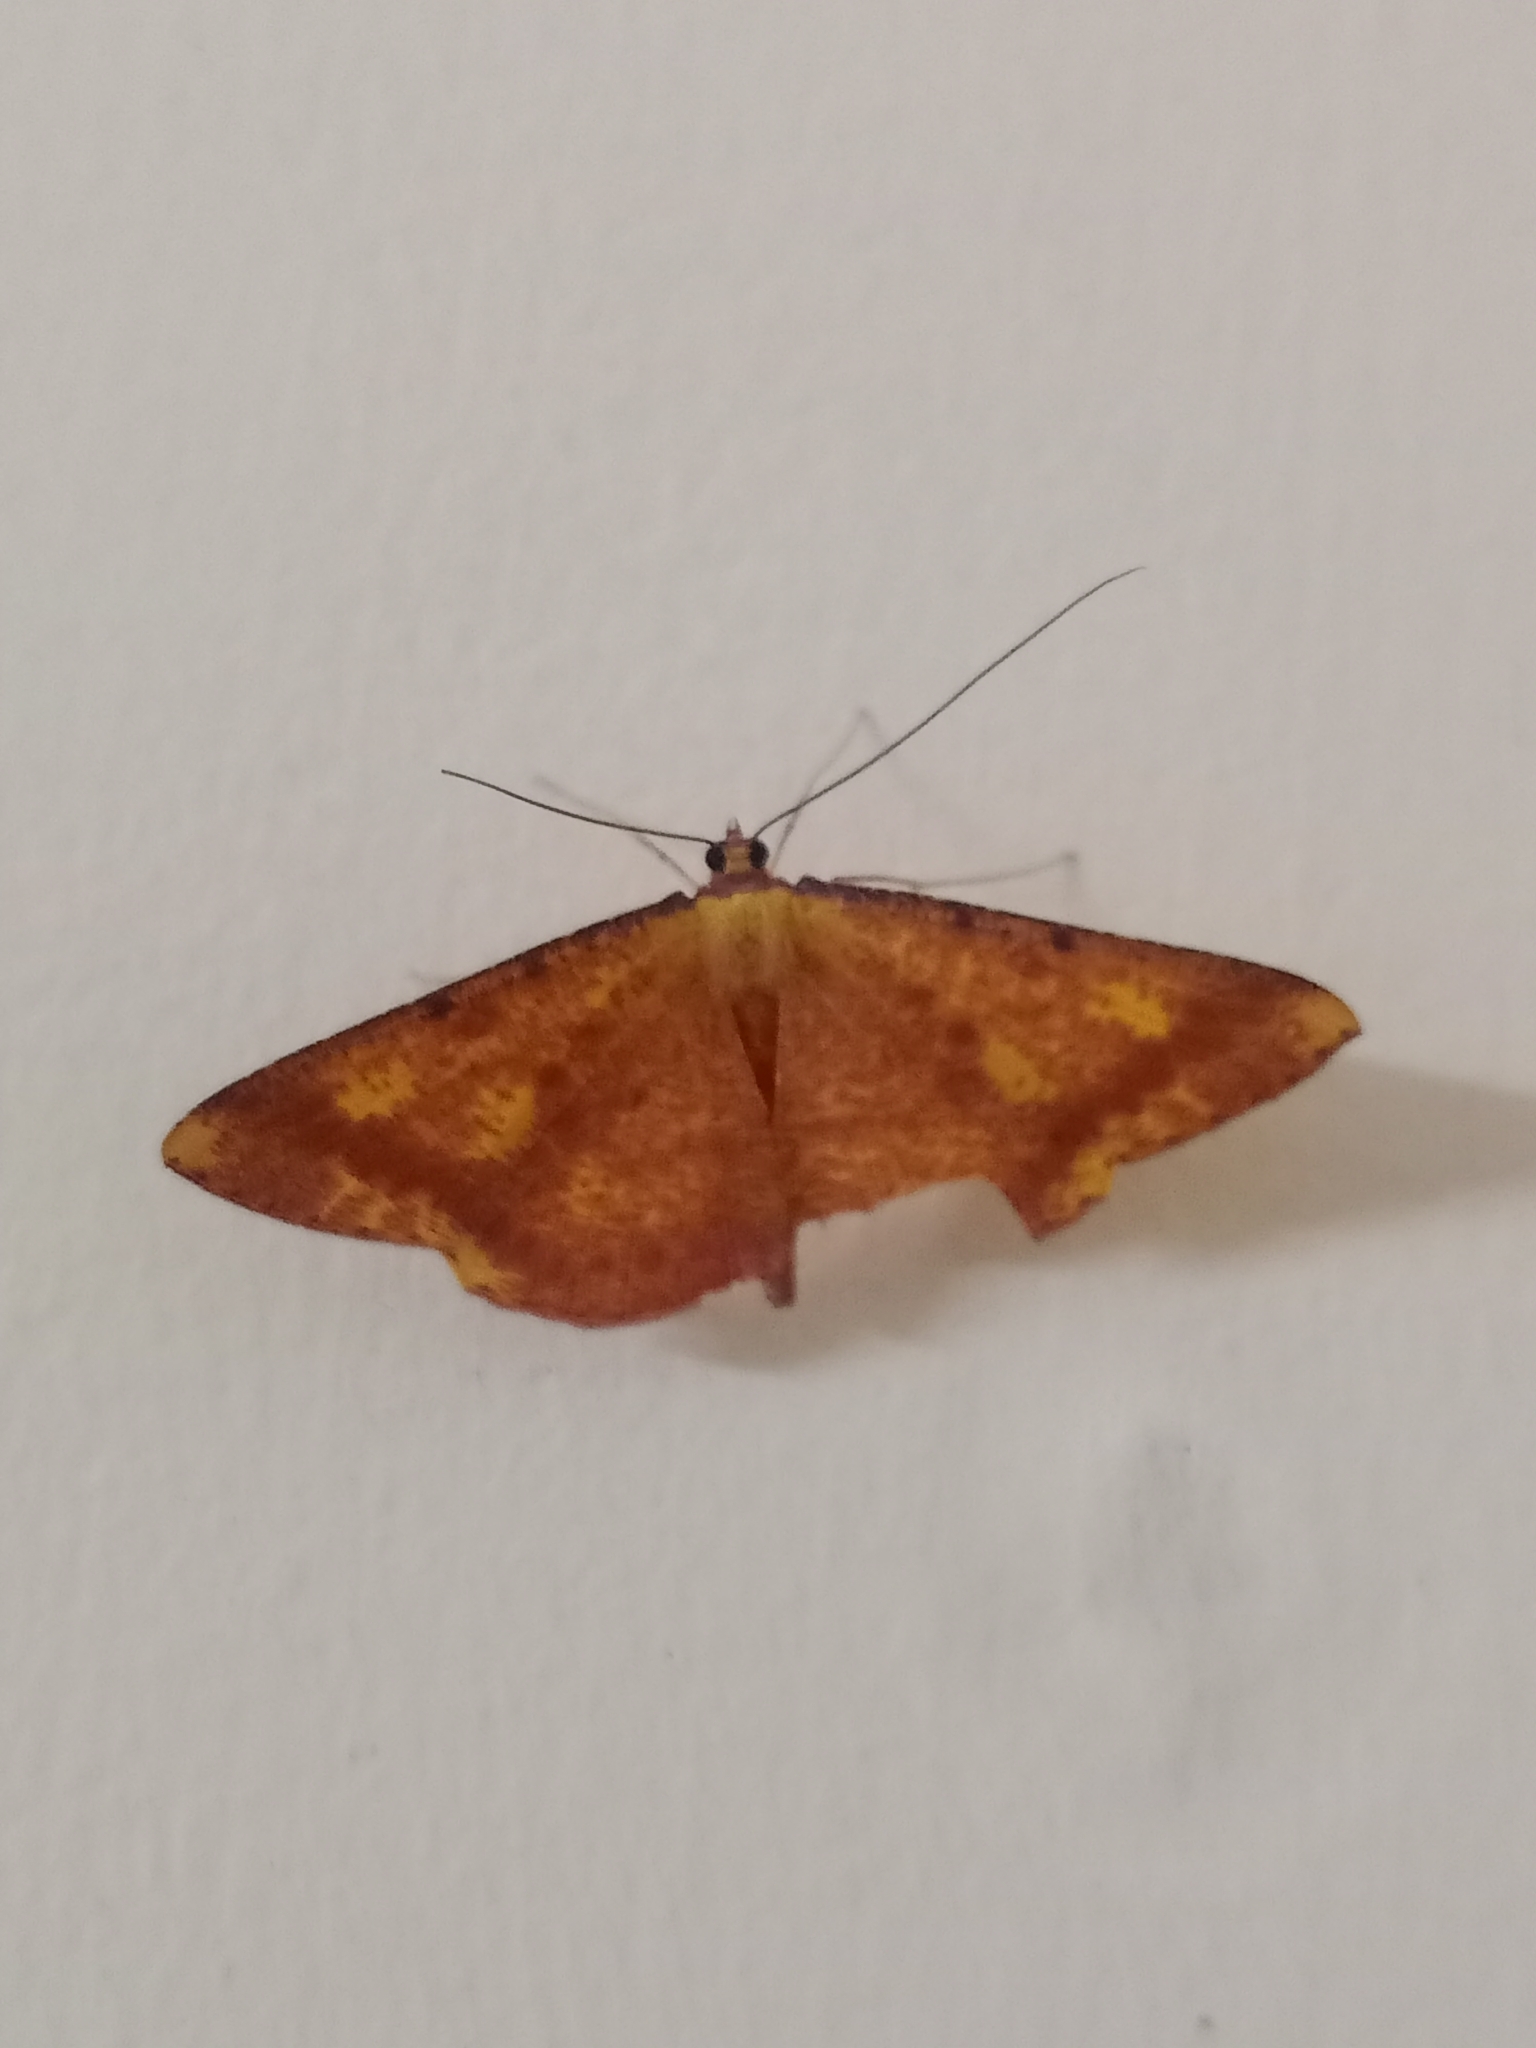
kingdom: Animalia
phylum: Arthropoda
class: Insecta
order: Lepidoptera
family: Geometridae
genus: Eumelea
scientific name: Eumelea ludovicata
